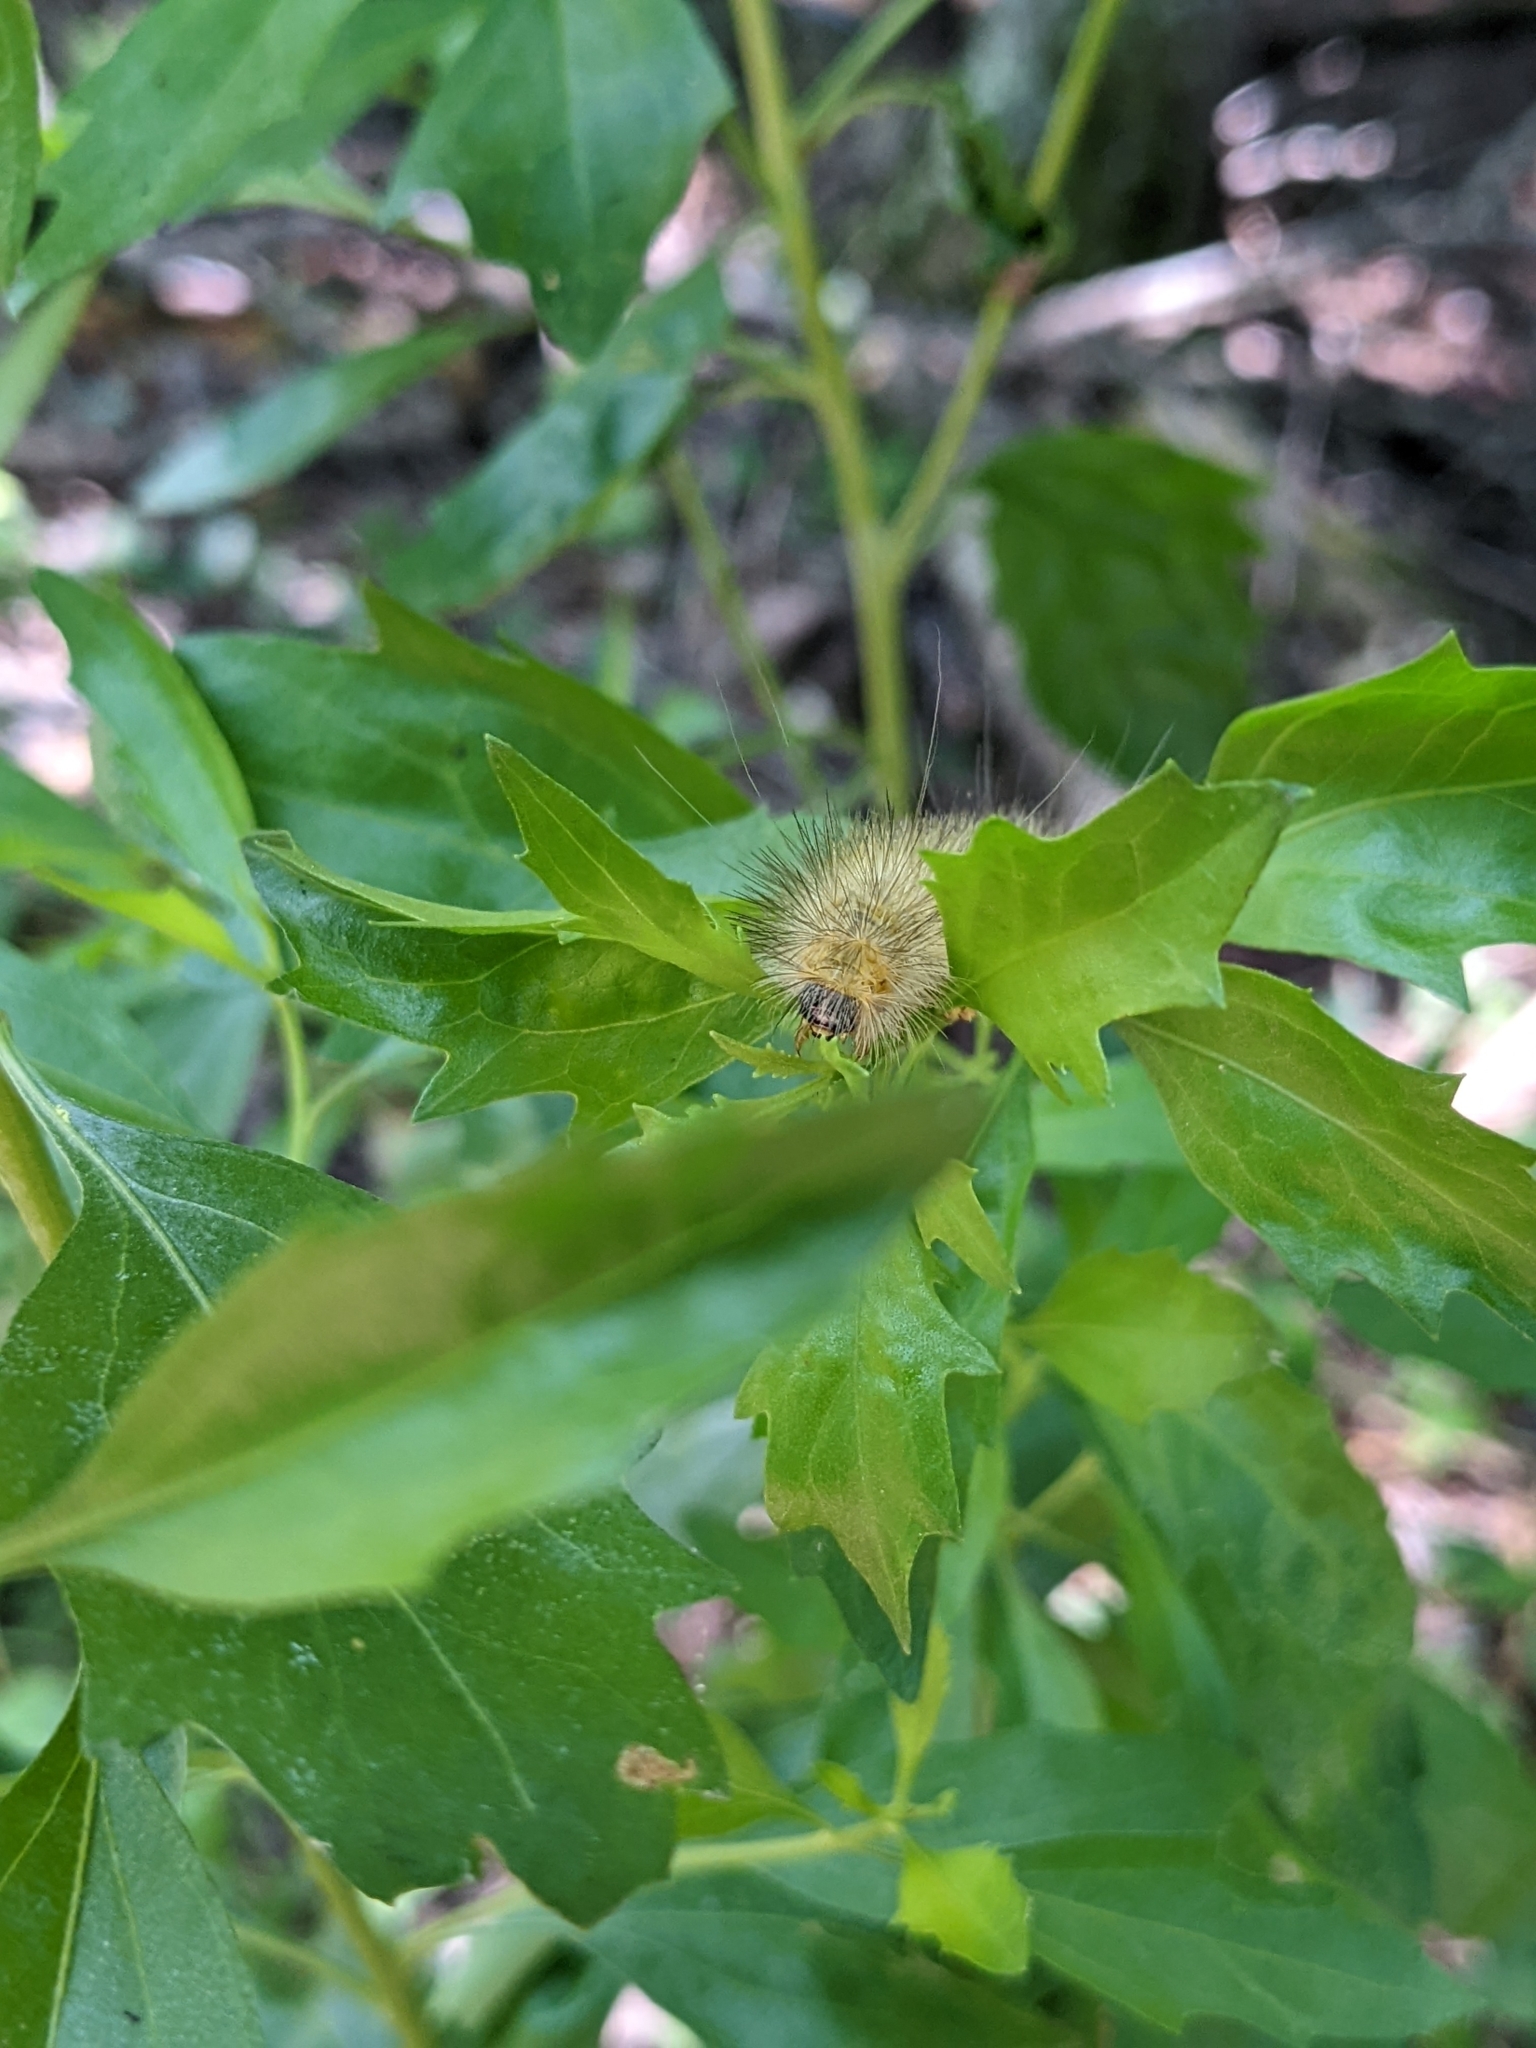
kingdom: Animalia
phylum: Arthropoda
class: Insecta
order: Lepidoptera
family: Erebidae
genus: Estigmene
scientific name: Estigmene acrea
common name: Salt marsh moth
